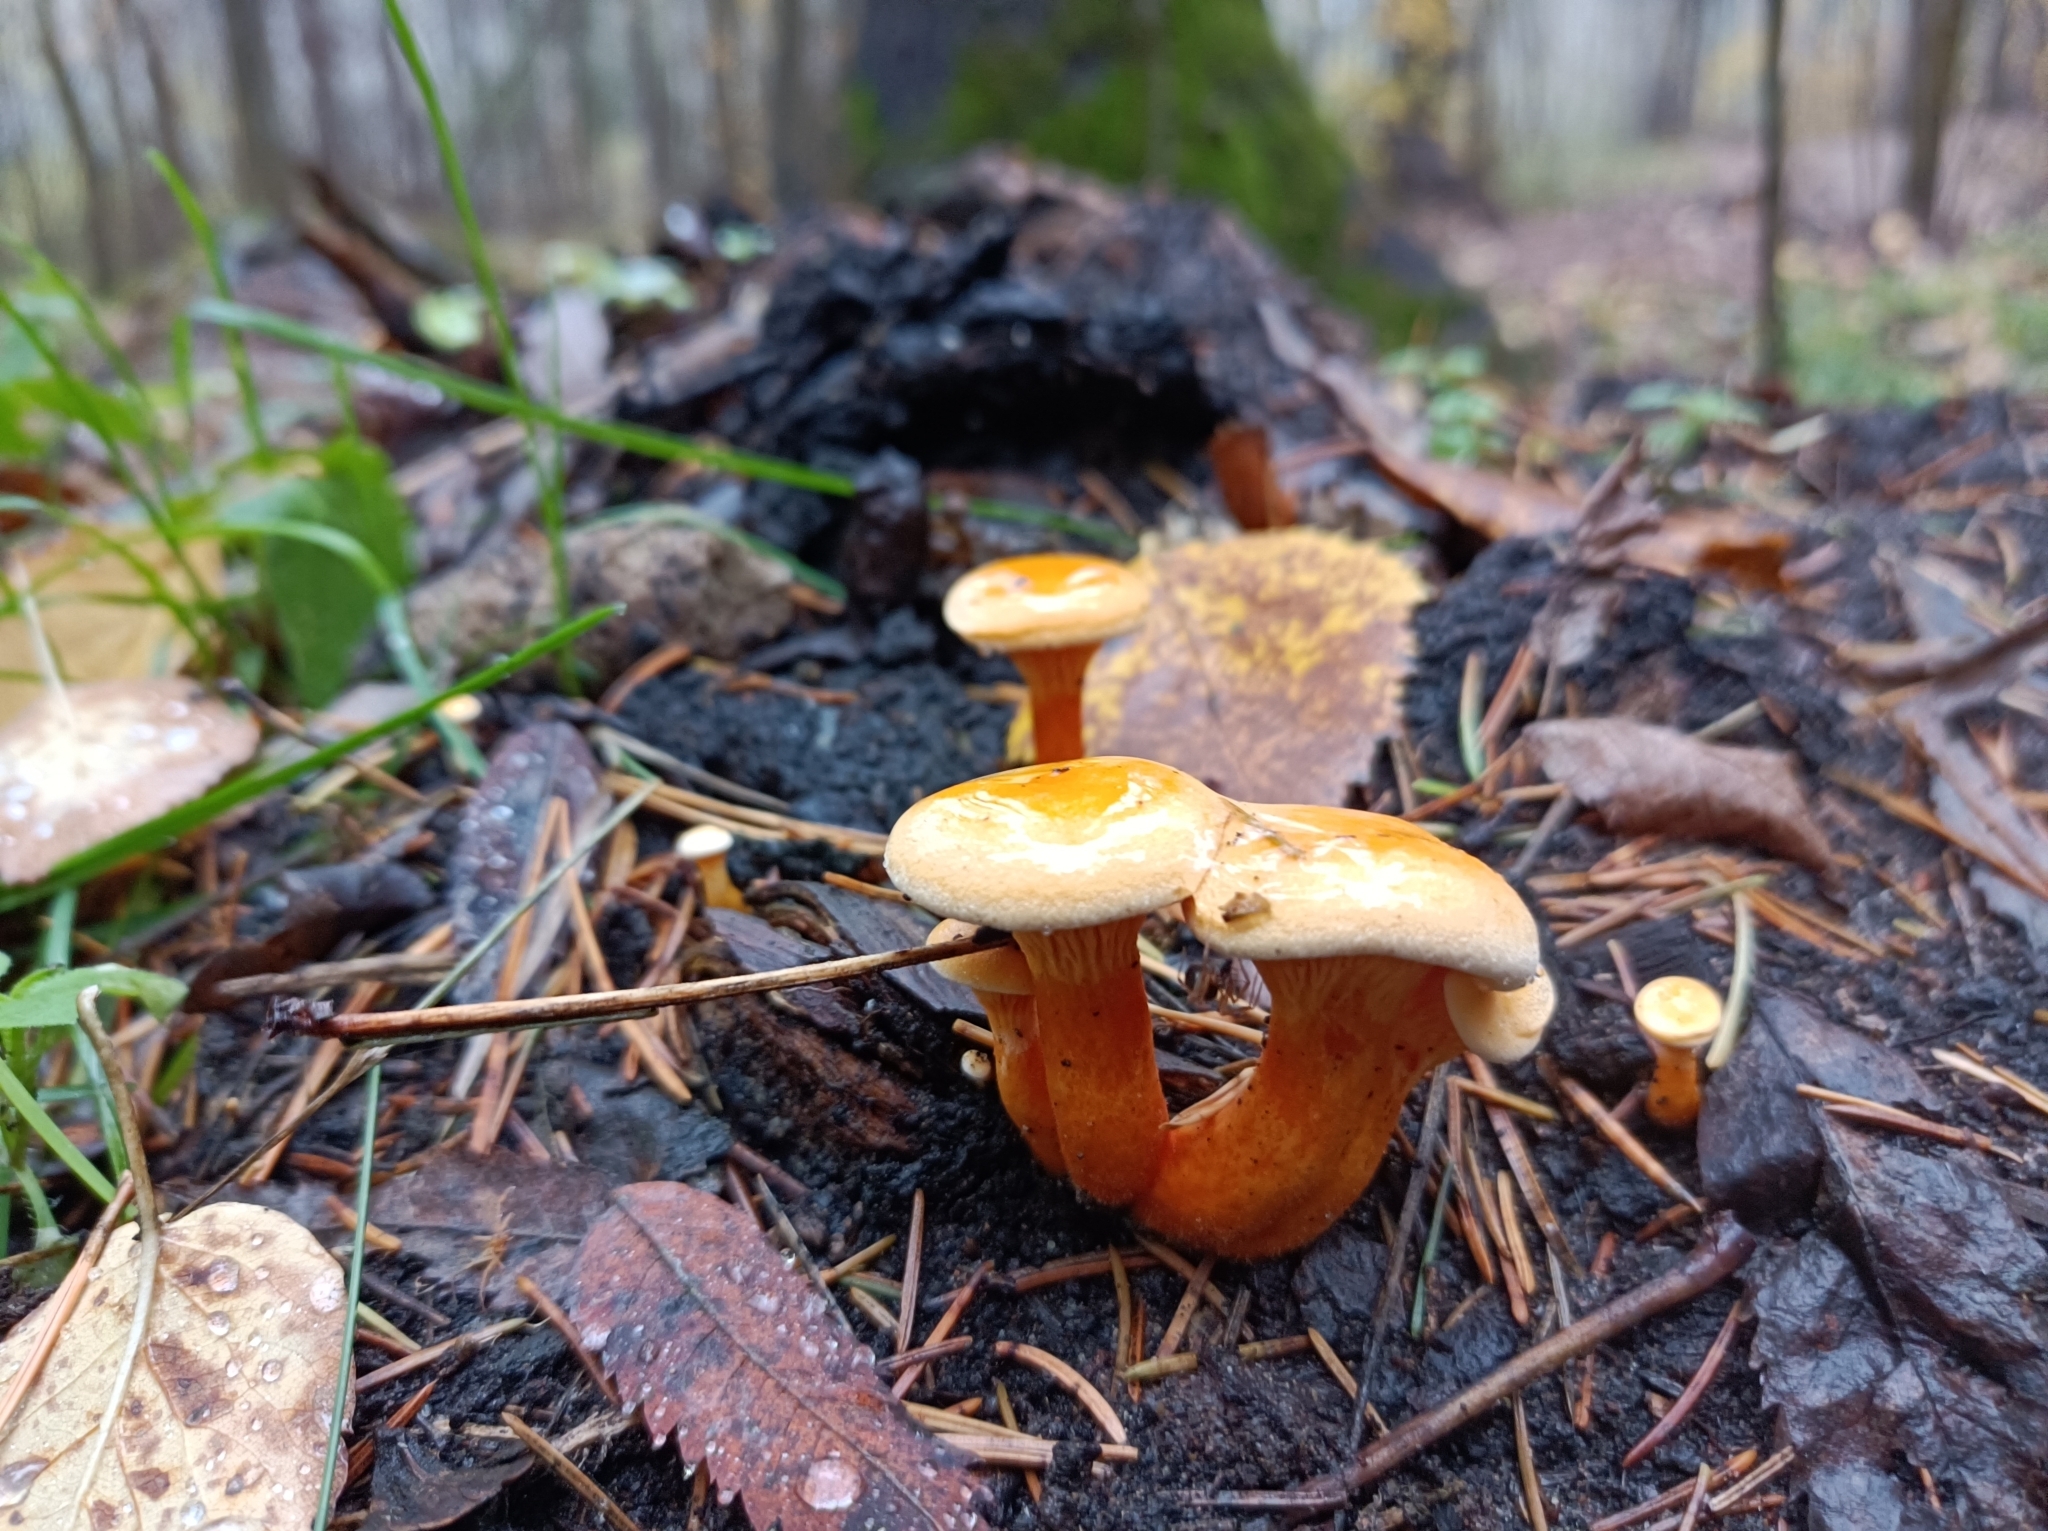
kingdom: Fungi
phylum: Basidiomycota
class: Agaricomycetes
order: Boletales
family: Hygrophoropsidaceae
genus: Hygrophoropsis
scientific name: Hygrophoropsis aurantiaca
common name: False chanterelle
